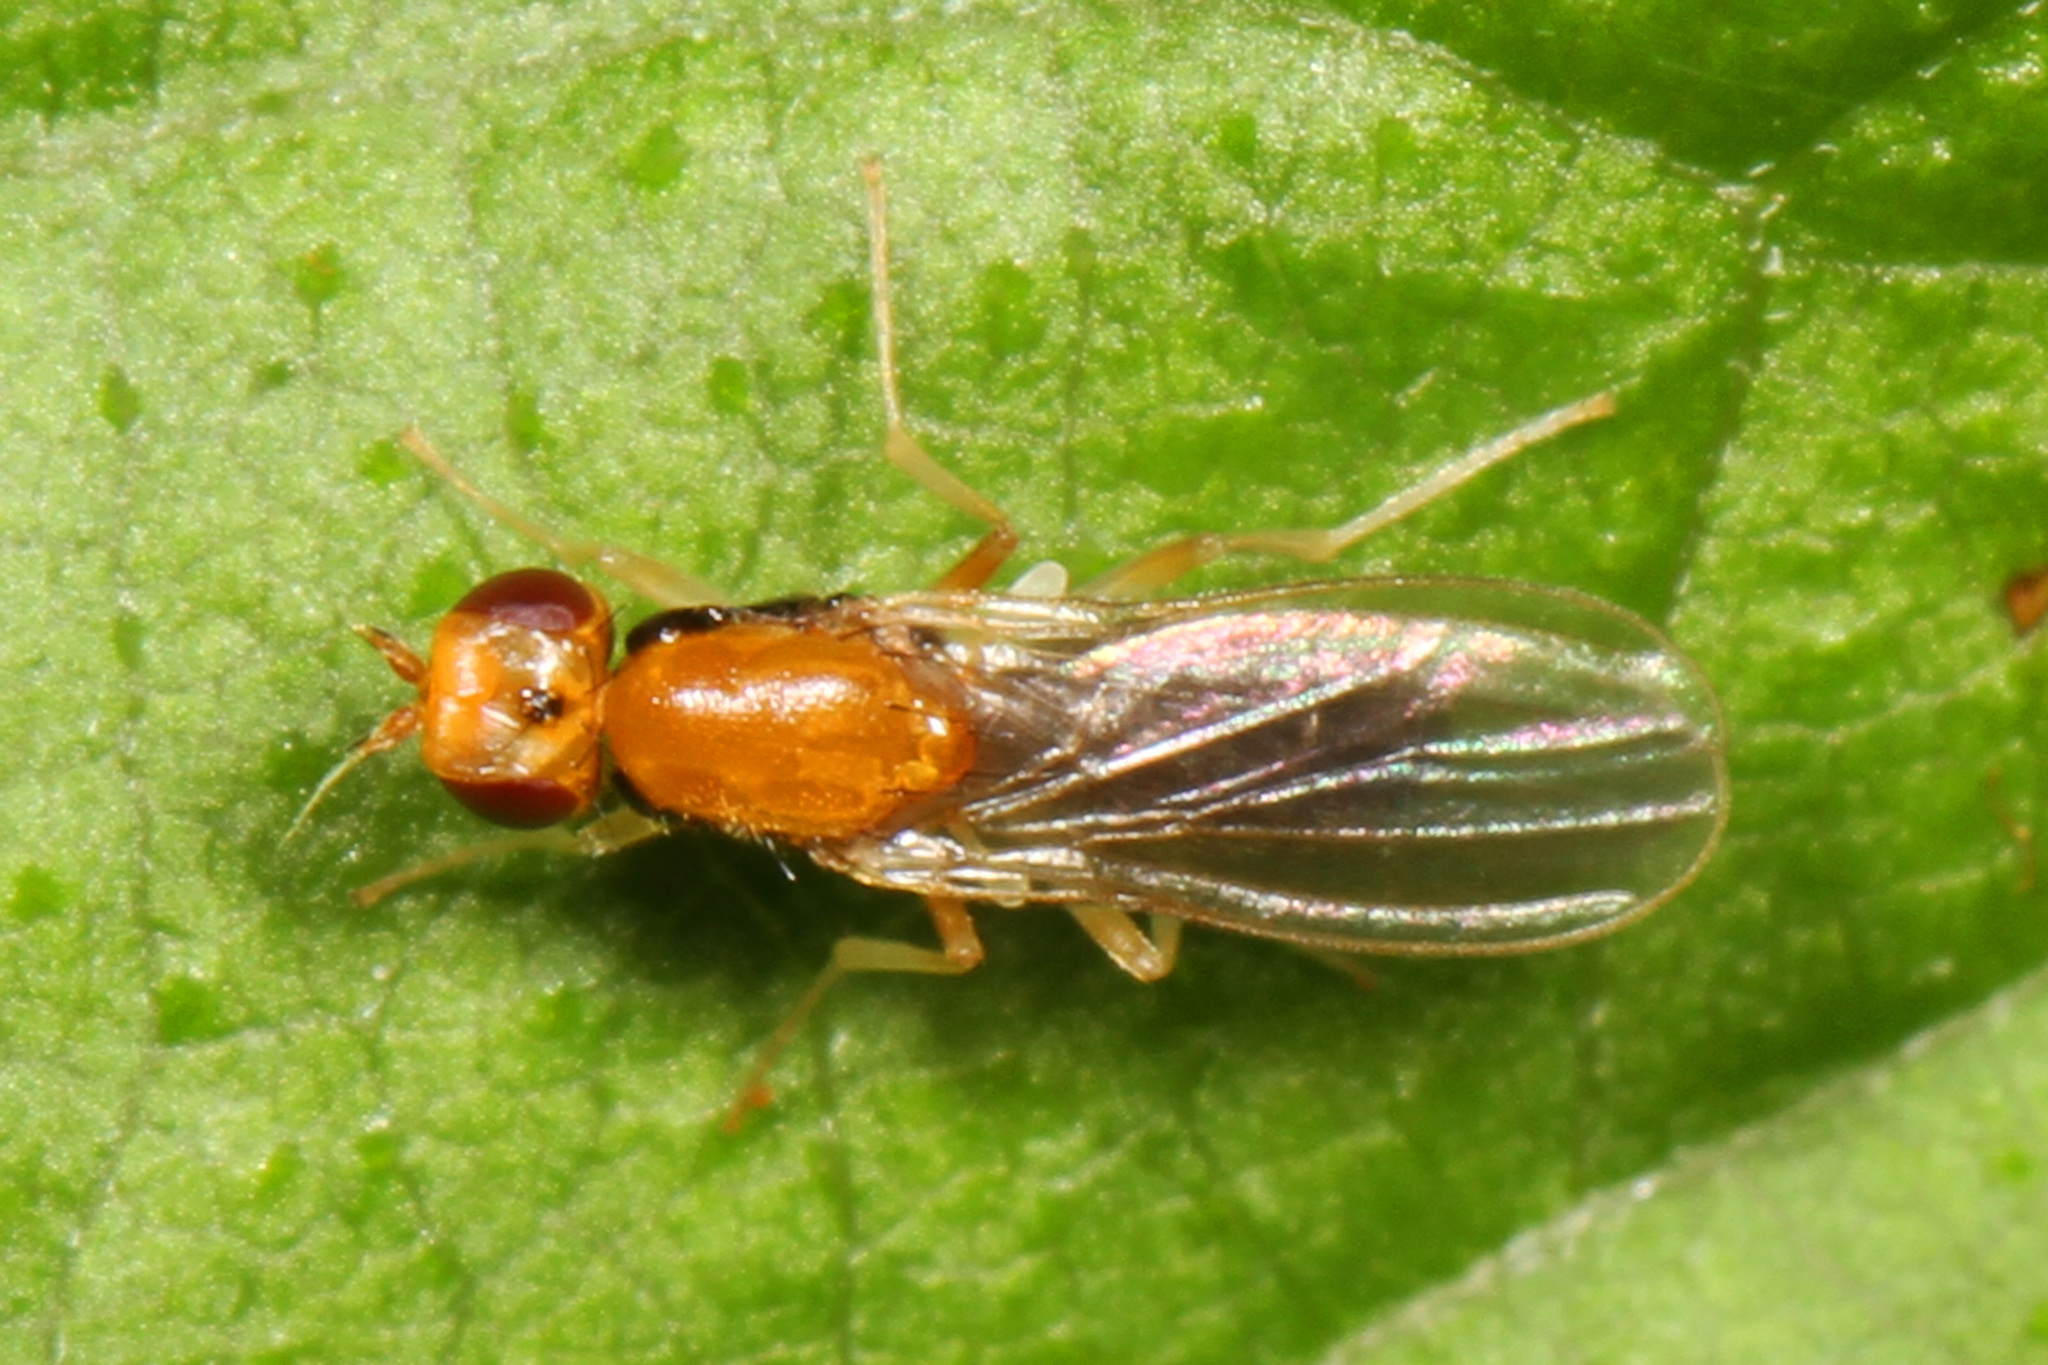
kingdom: Animalia
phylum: Arthropoda
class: Insecta
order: Diptera
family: Psilidae
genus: Psila
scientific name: Psila lateralis
